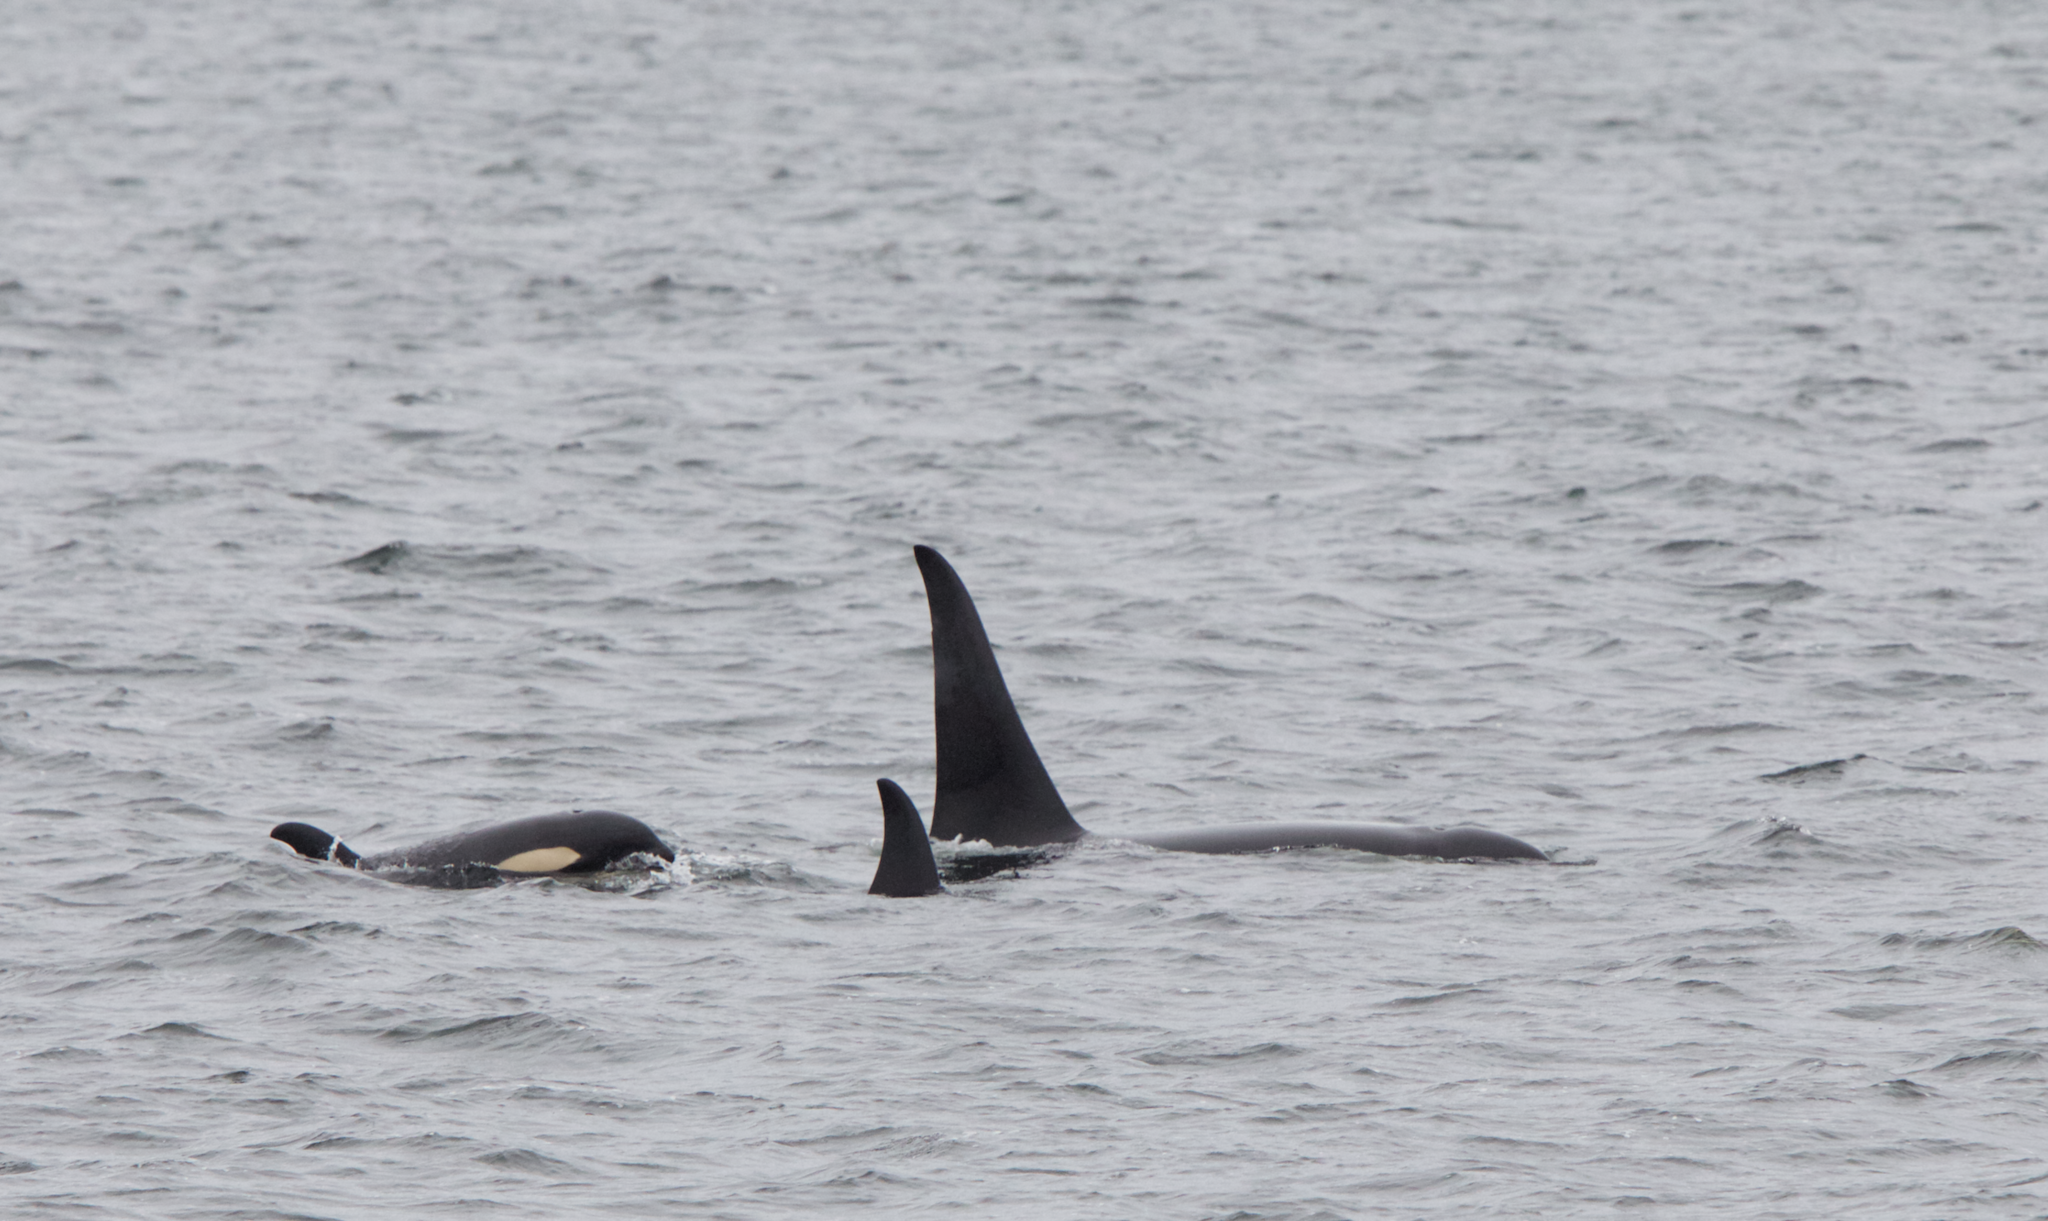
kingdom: Animalia
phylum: Chordata
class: Mammalia
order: Cetacea
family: Delphinidae
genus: Orcinus
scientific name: Orcinus orca
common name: Killer whale
